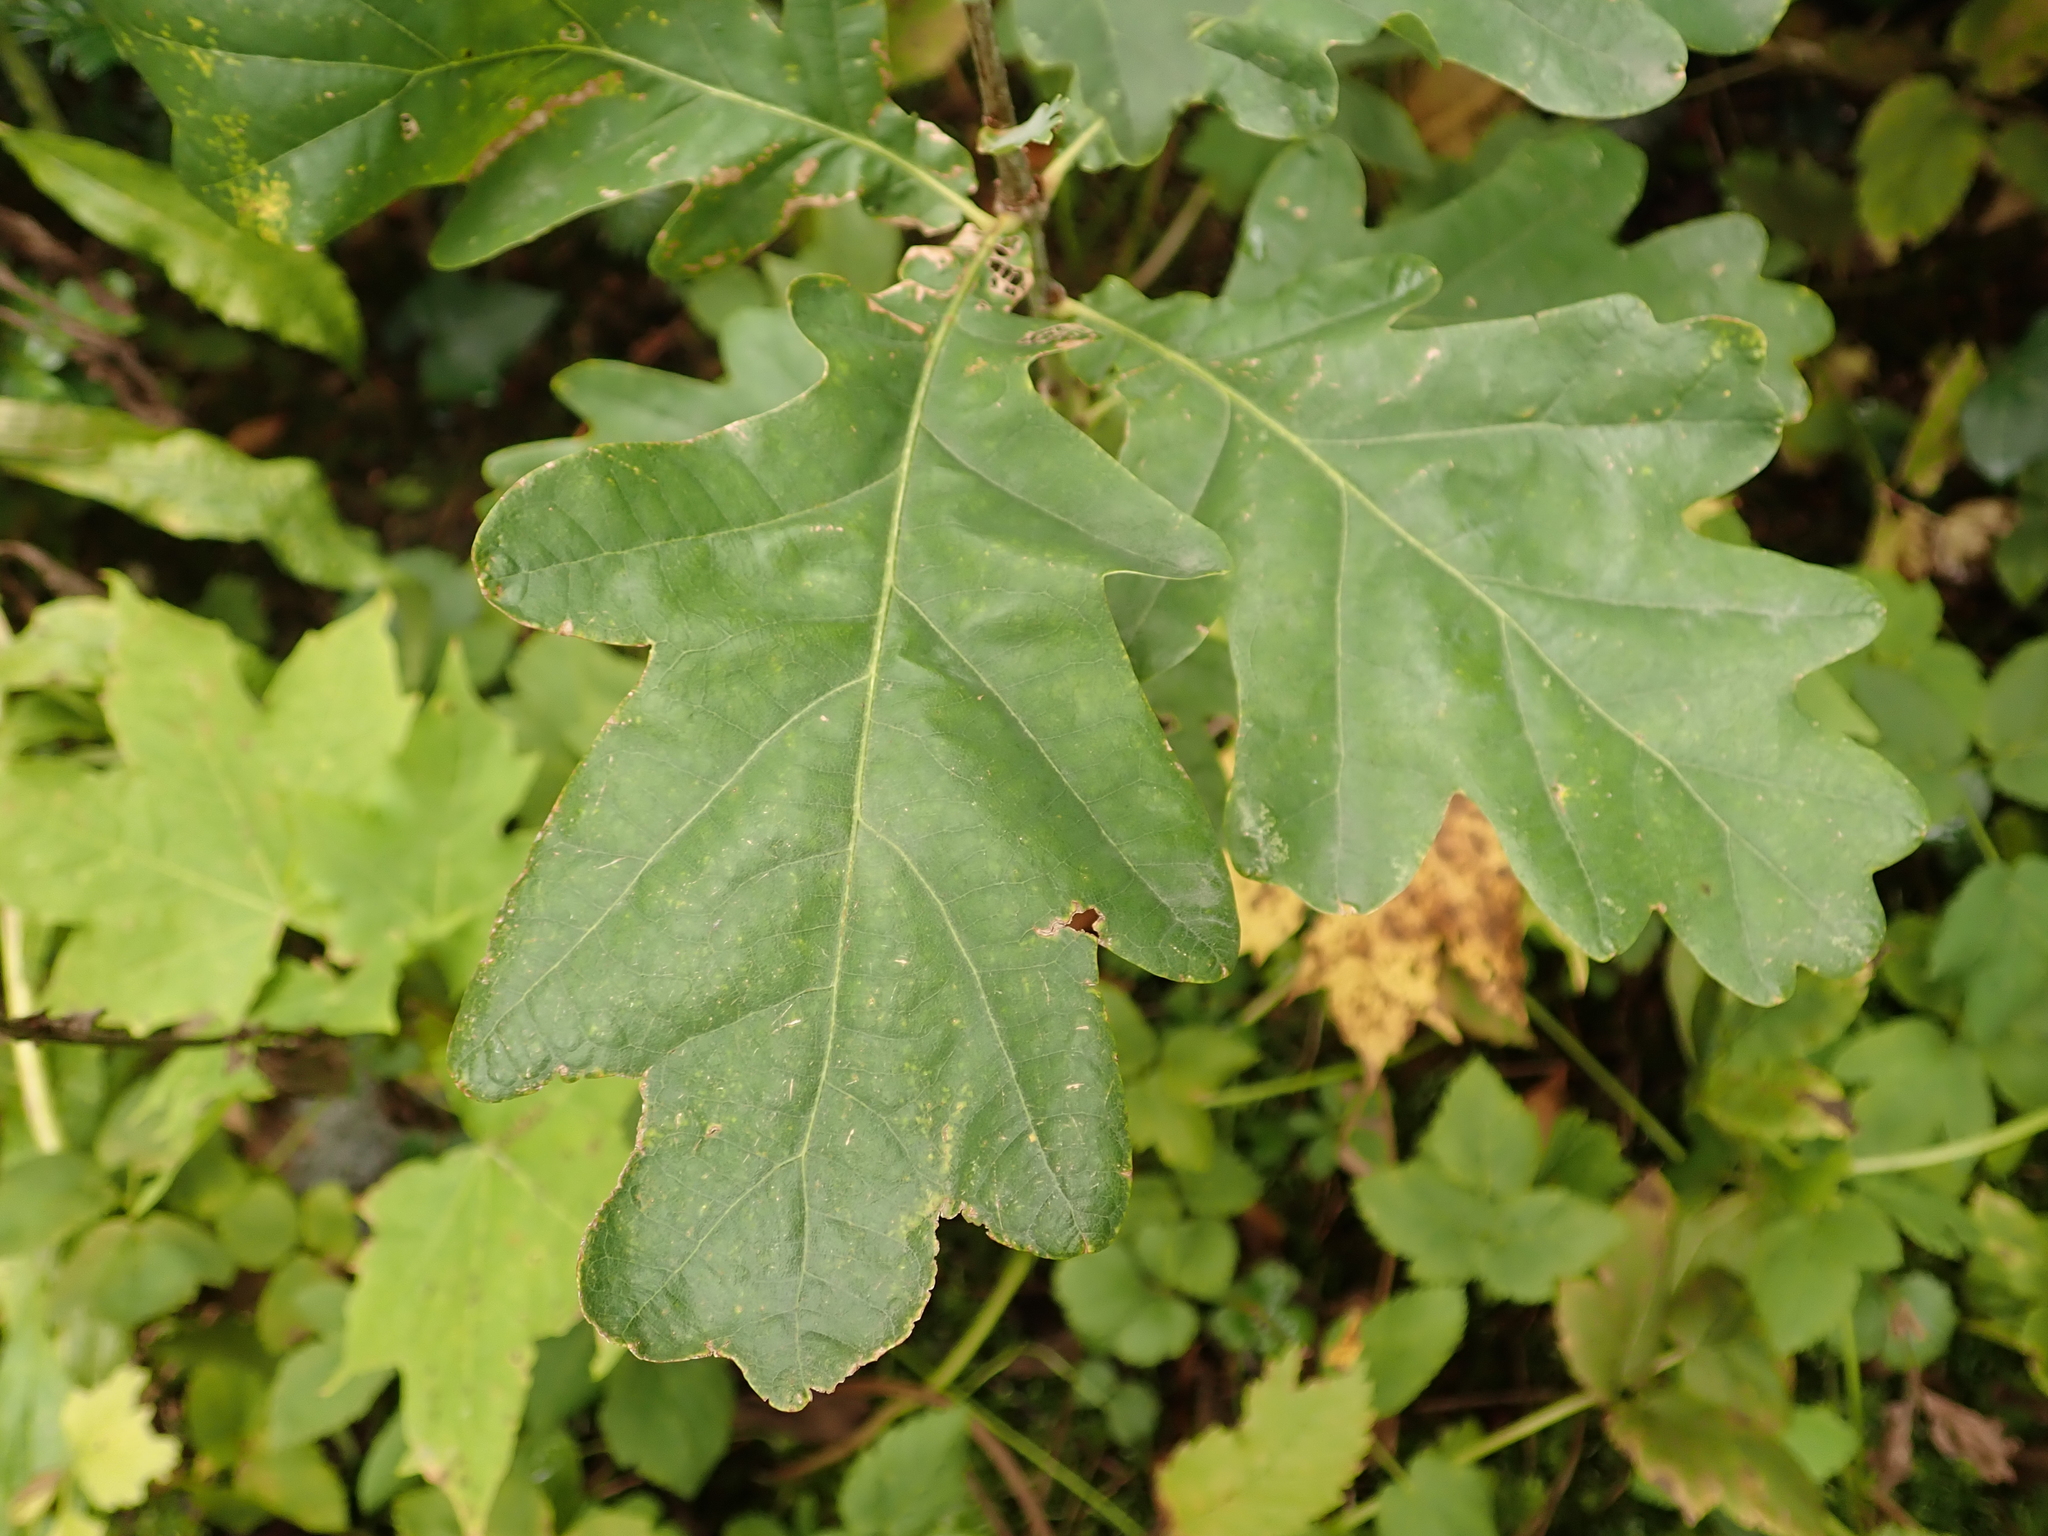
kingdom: Plantae
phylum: Tracheophyta
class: Magnoliopsida
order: Fagales
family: Fagaceae
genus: Quercus
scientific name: Quercus robur
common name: Pedunculate oak
